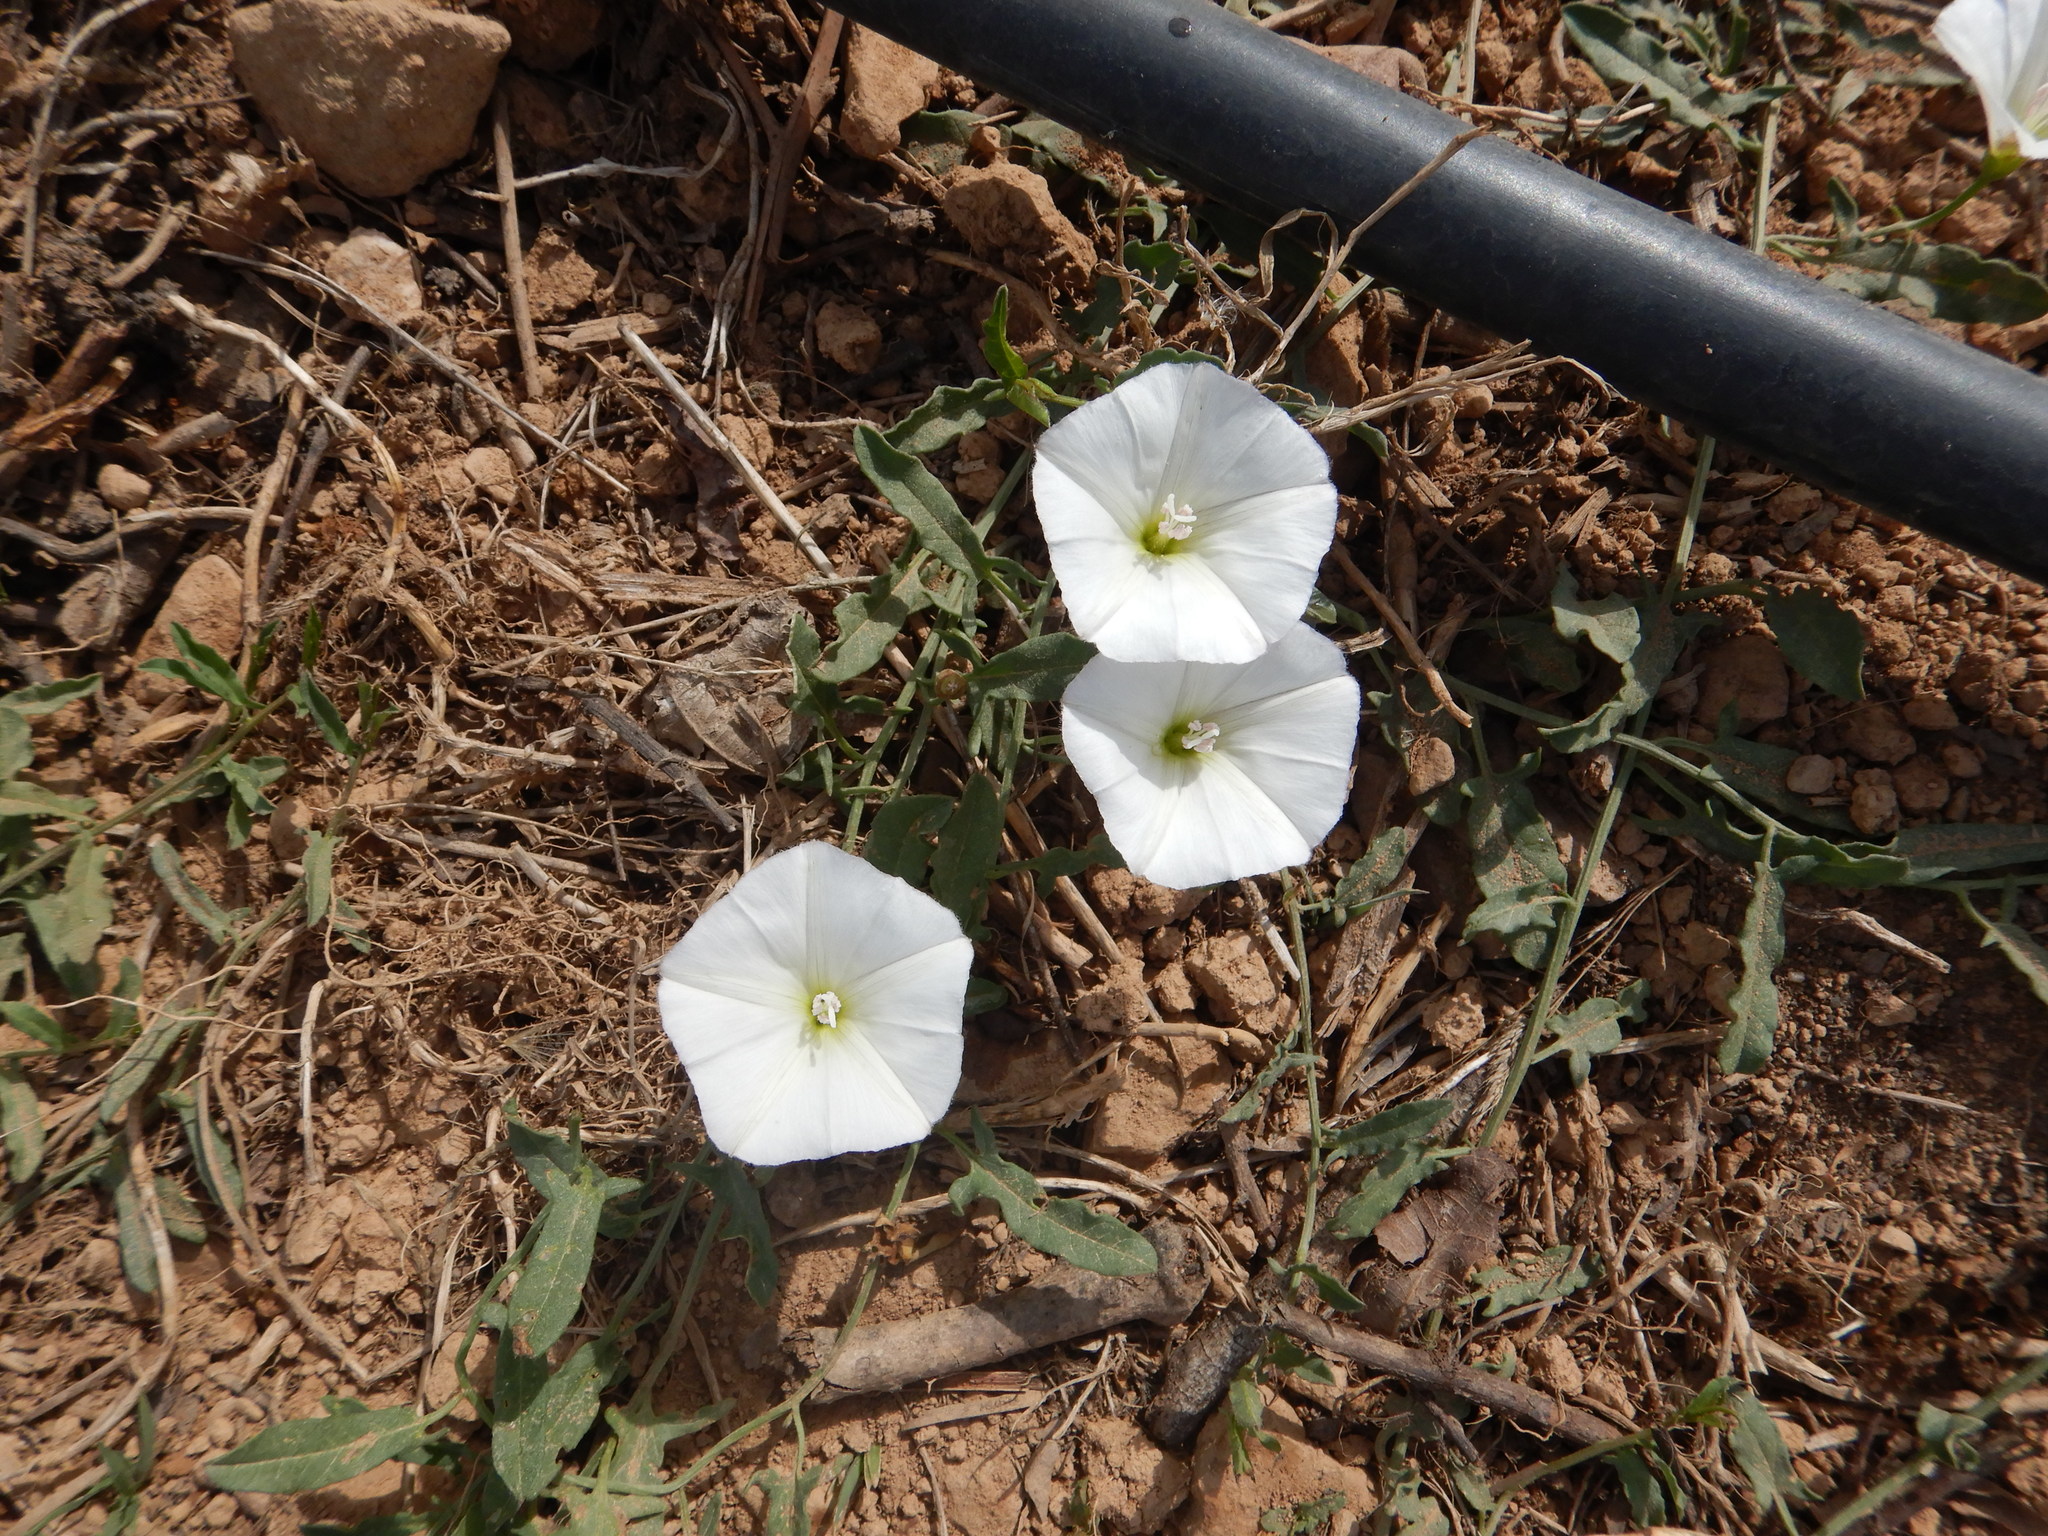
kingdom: Plantae
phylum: Tracheophyta
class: Magnoliopsida
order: Solanales
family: Convolvulaceae
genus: Convolvulus
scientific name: Convolvulus arvensis
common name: Field bindweed
